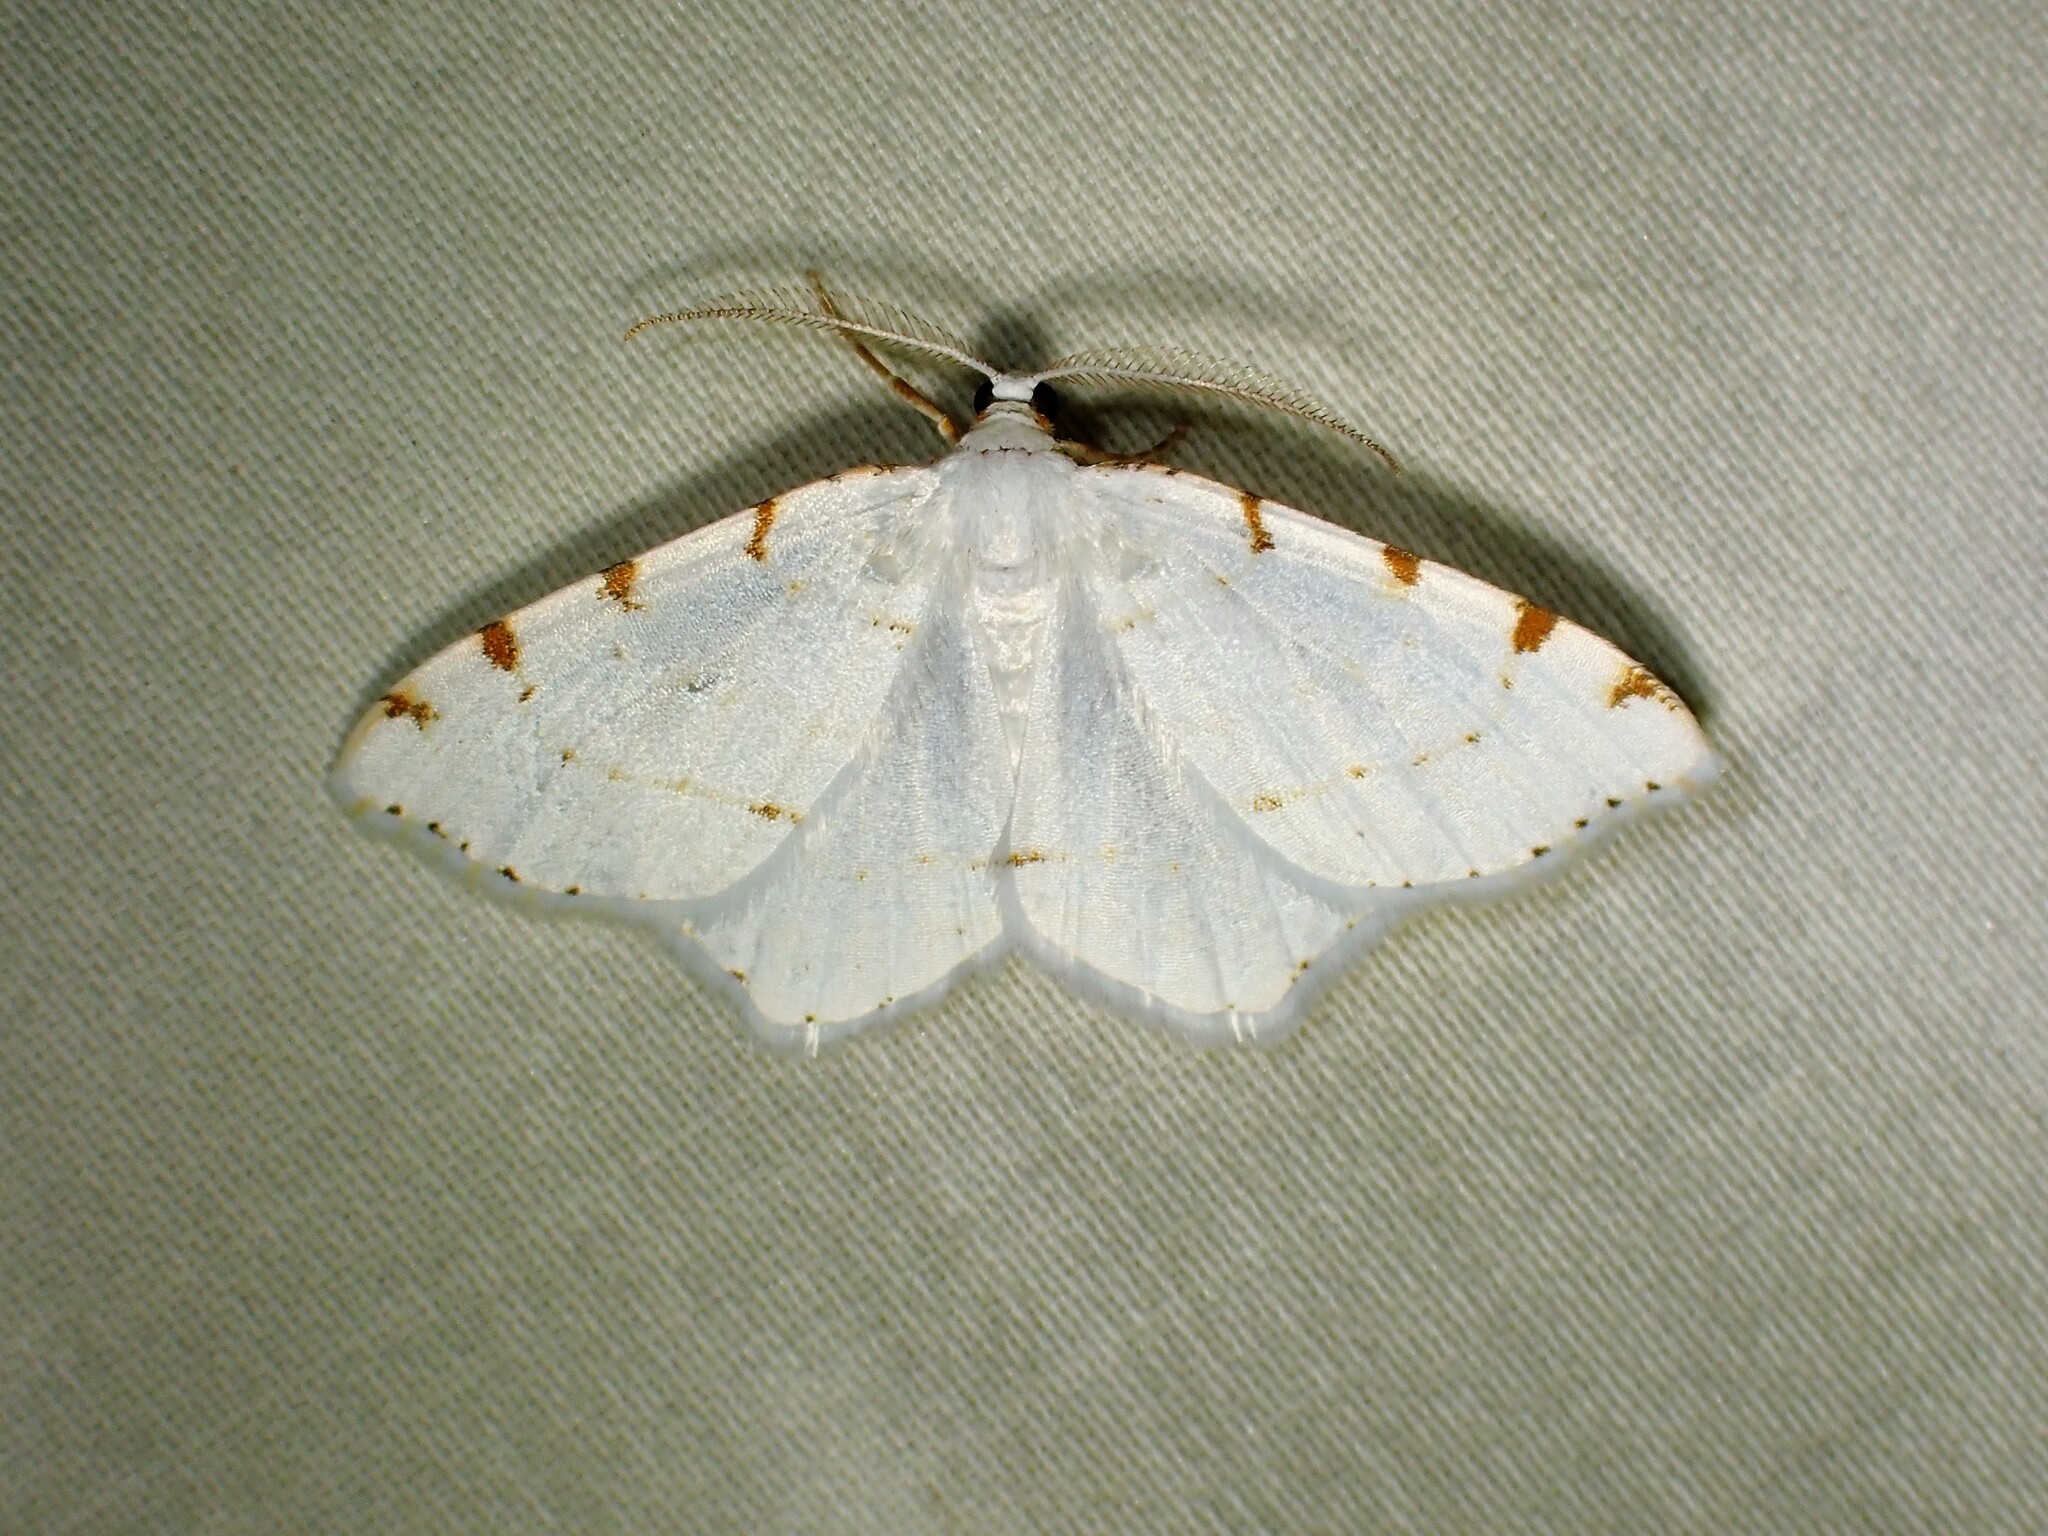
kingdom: Animalia
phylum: Arthropoda
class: Insecta
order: Lepidoptera
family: Geometridae
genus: Macaria
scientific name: Macaria pustularia
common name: Lesser maple spanworm moth
